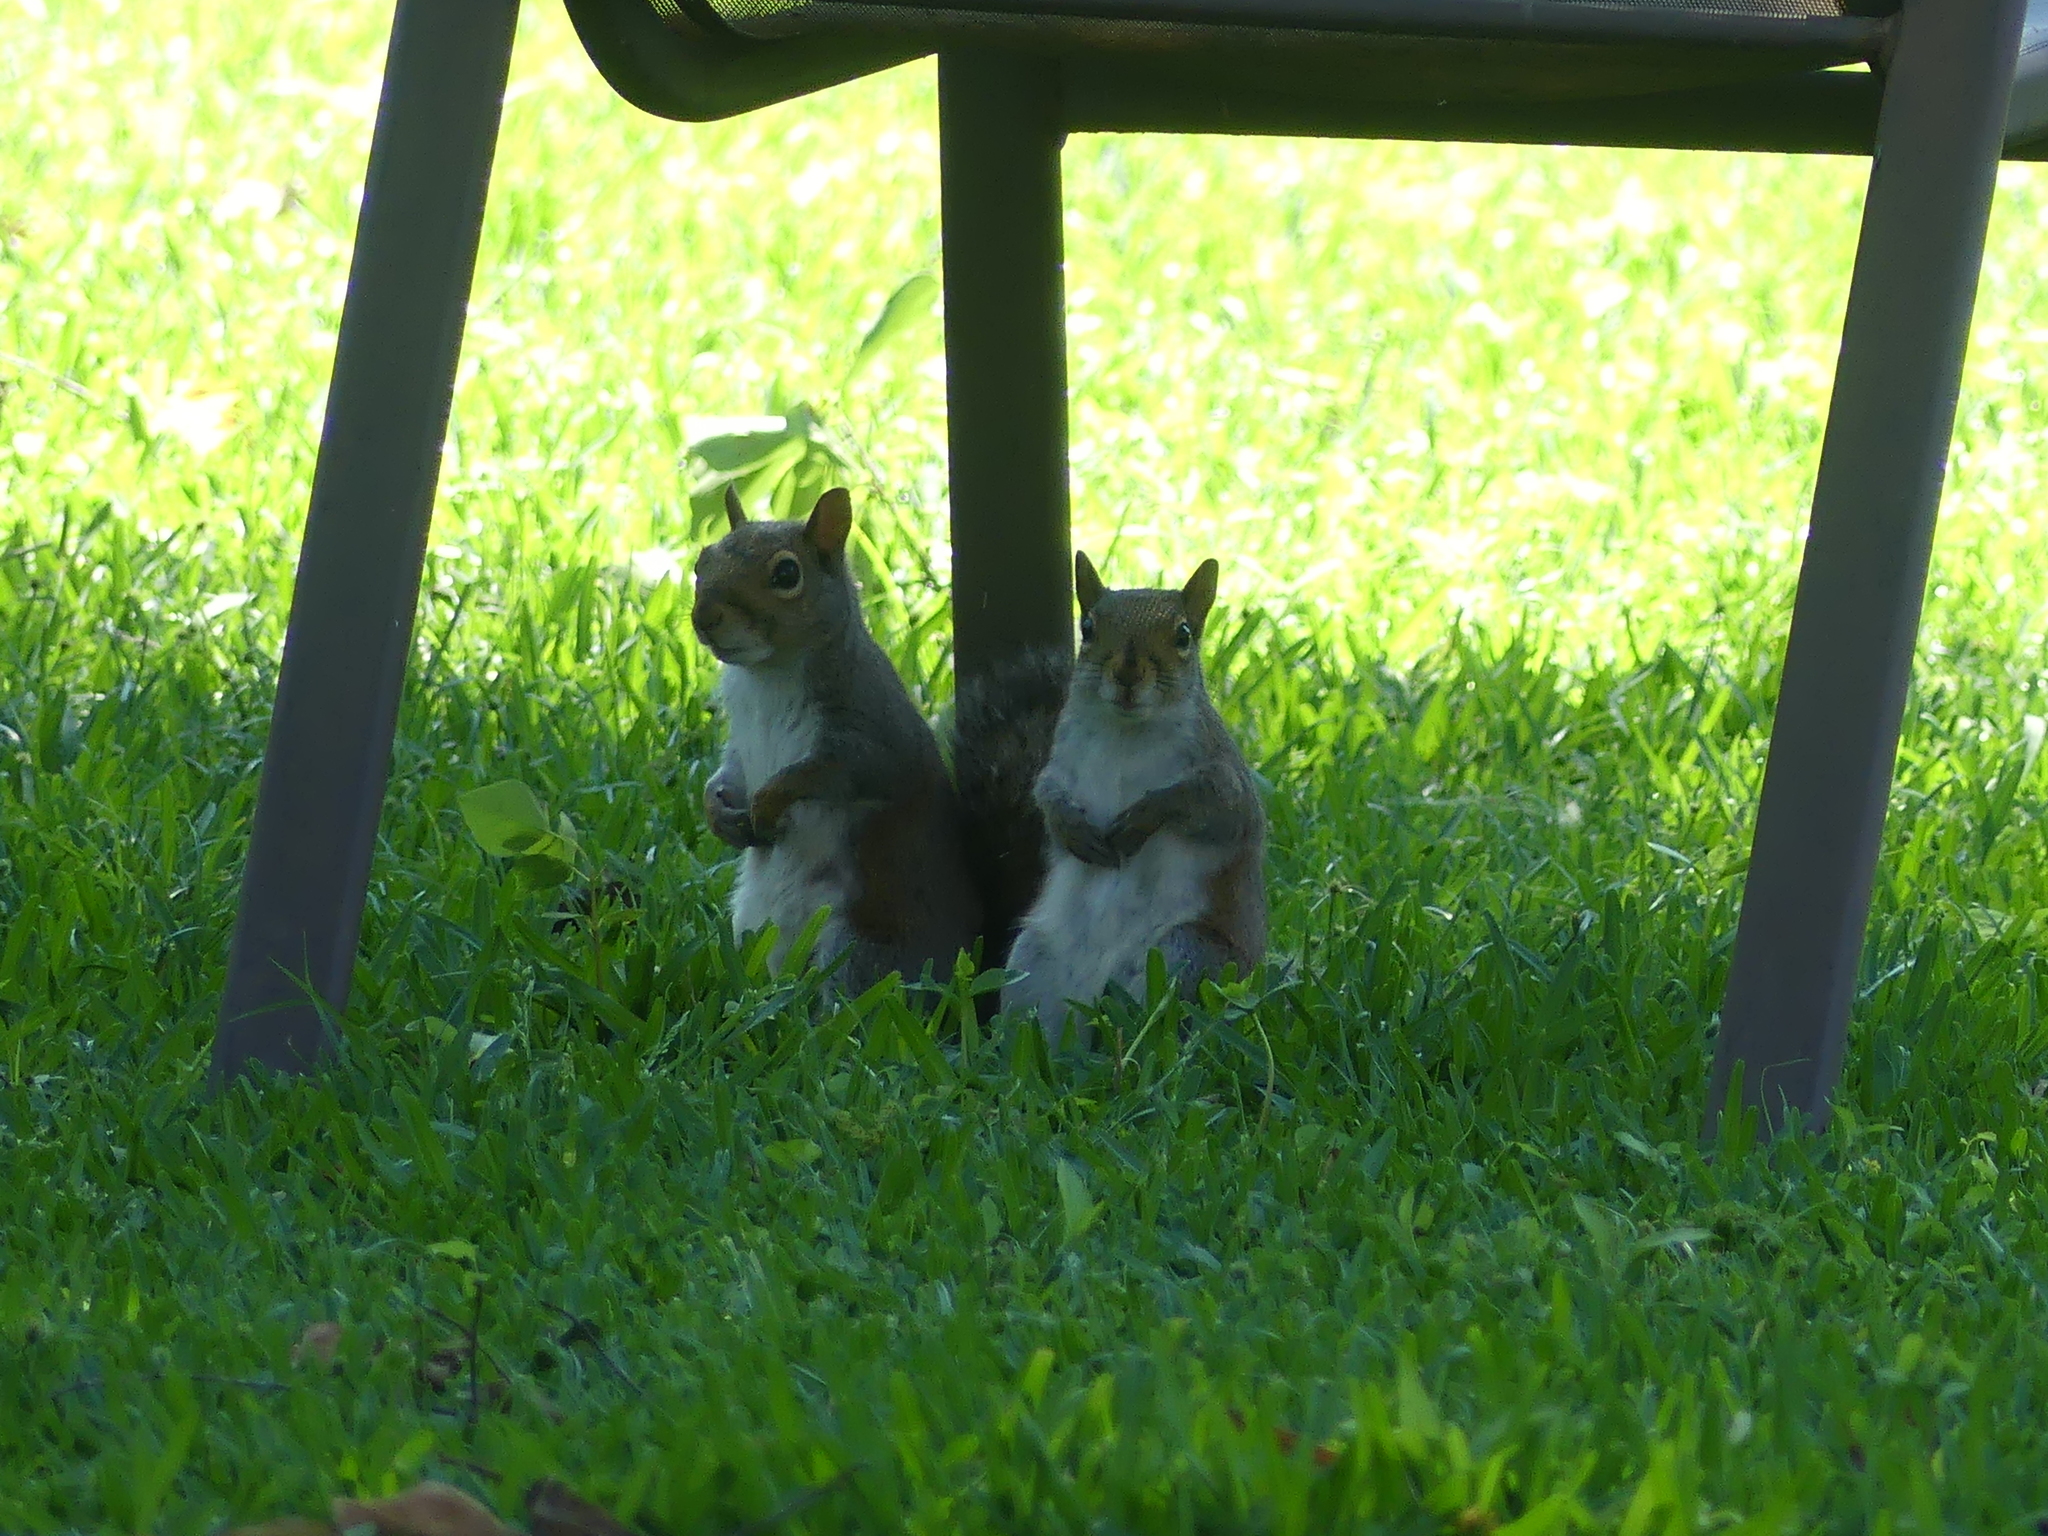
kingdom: Animalia
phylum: Chordata
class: Mammalia
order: Rodentia
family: Sciuridae
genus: Sciurus
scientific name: Sciurus carolinensis
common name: Eastern gray squirrel
